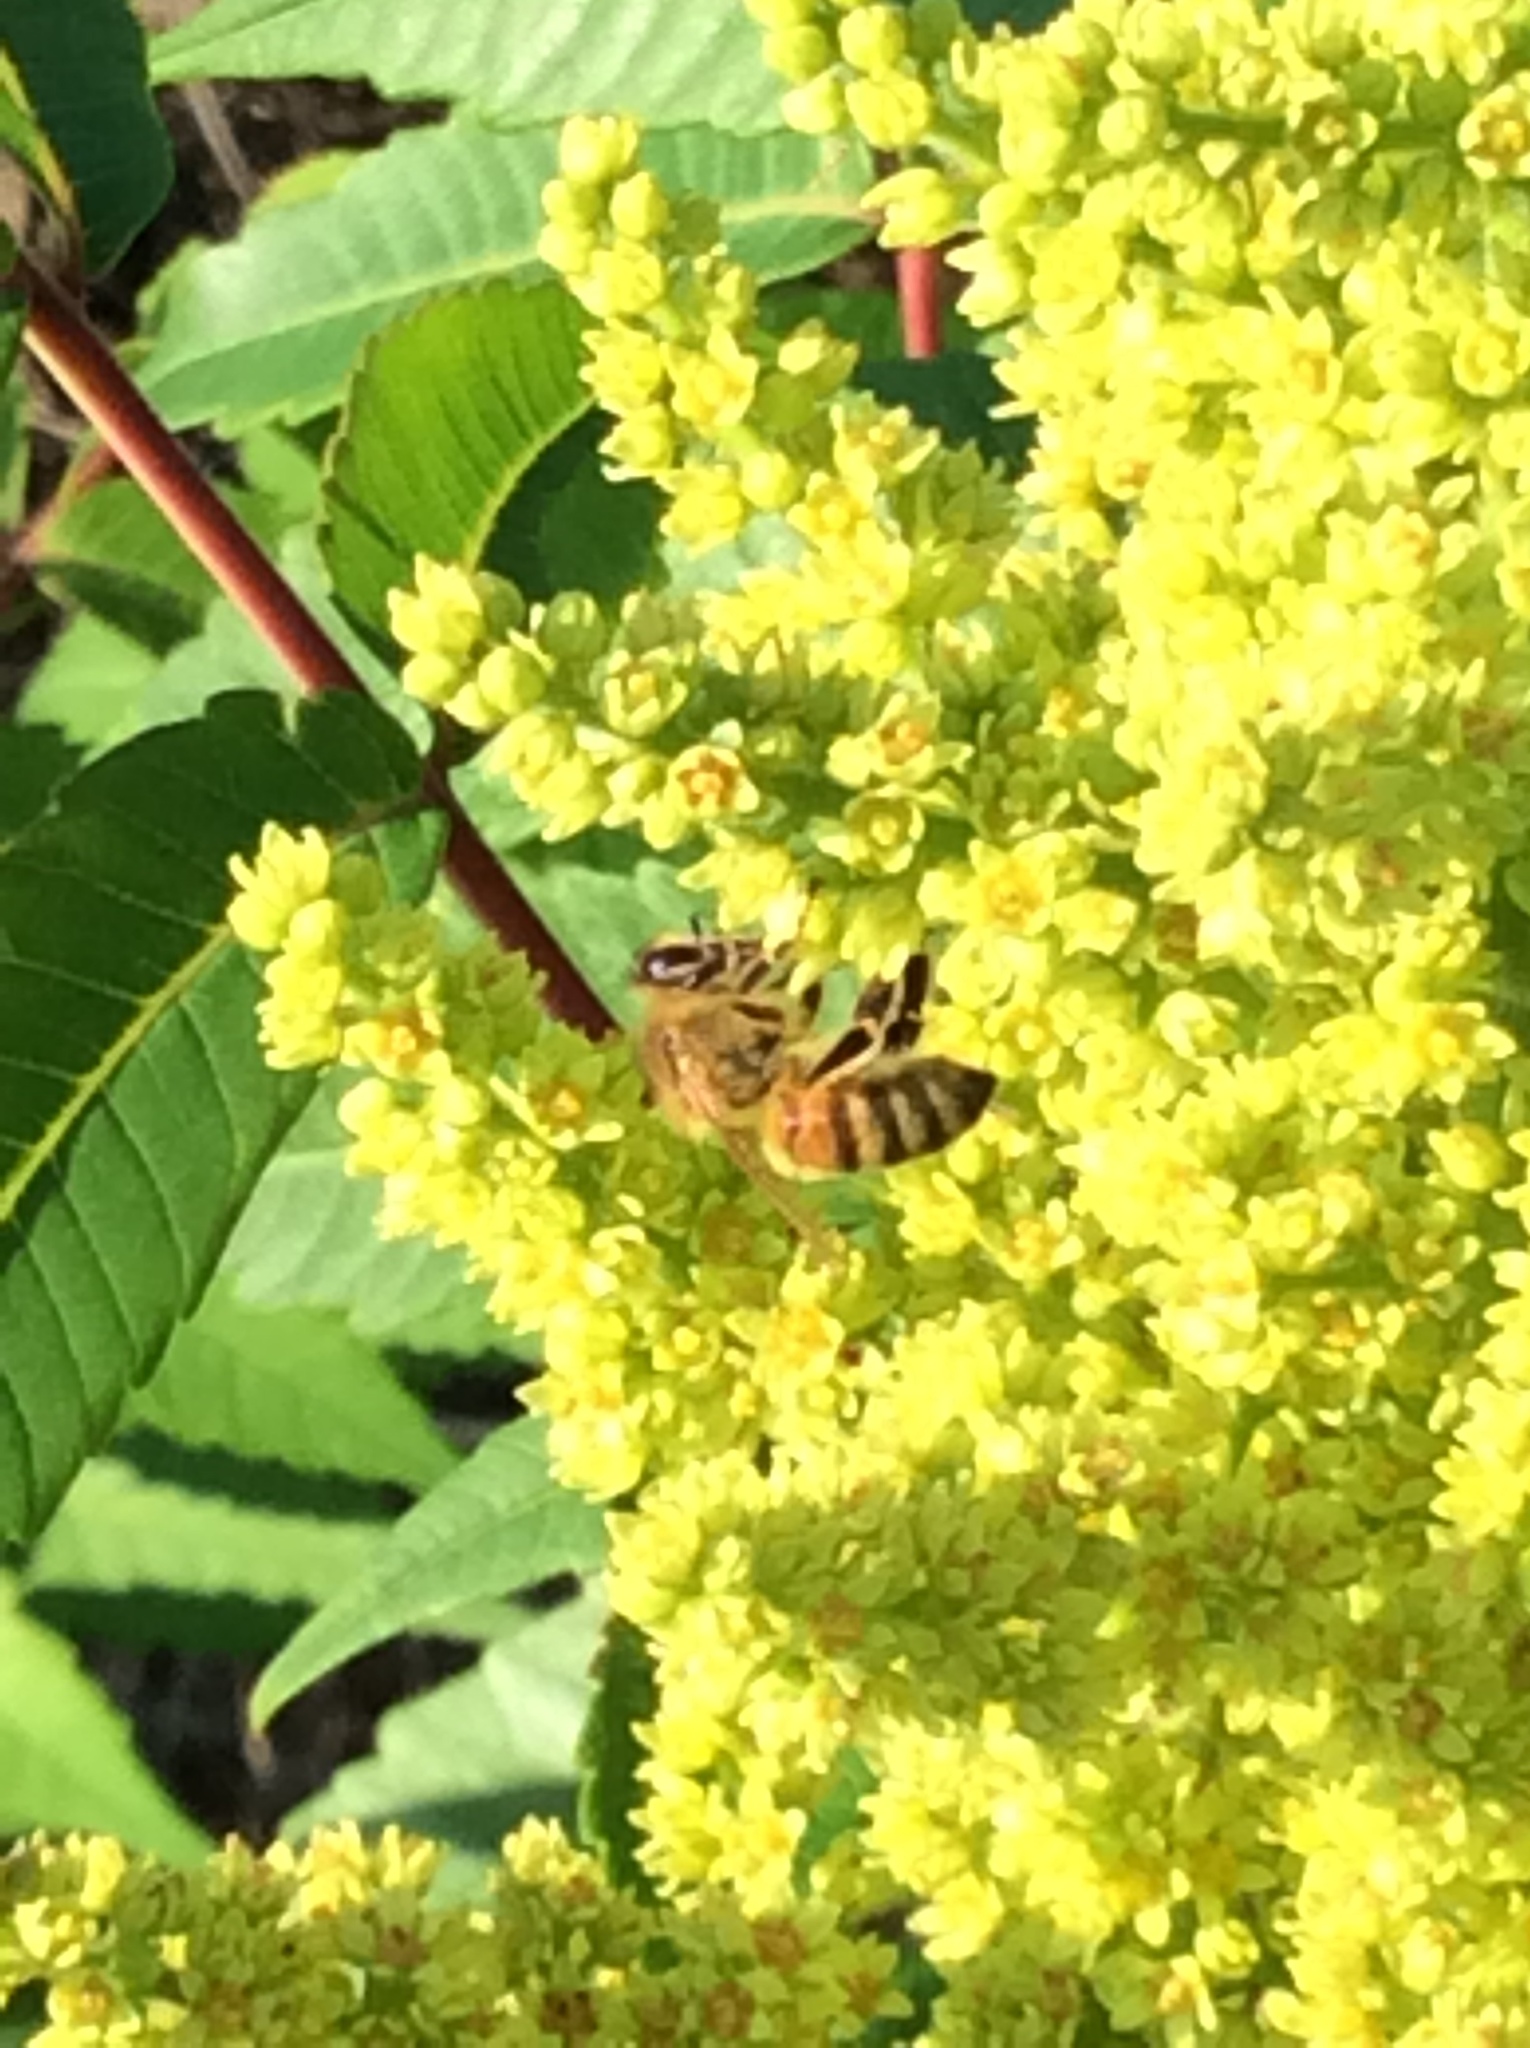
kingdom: Animalia
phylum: Arthropoda
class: Insecta
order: Hymenoptera
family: Apidae
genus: Apis
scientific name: Apis mellifera
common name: Honey bee
